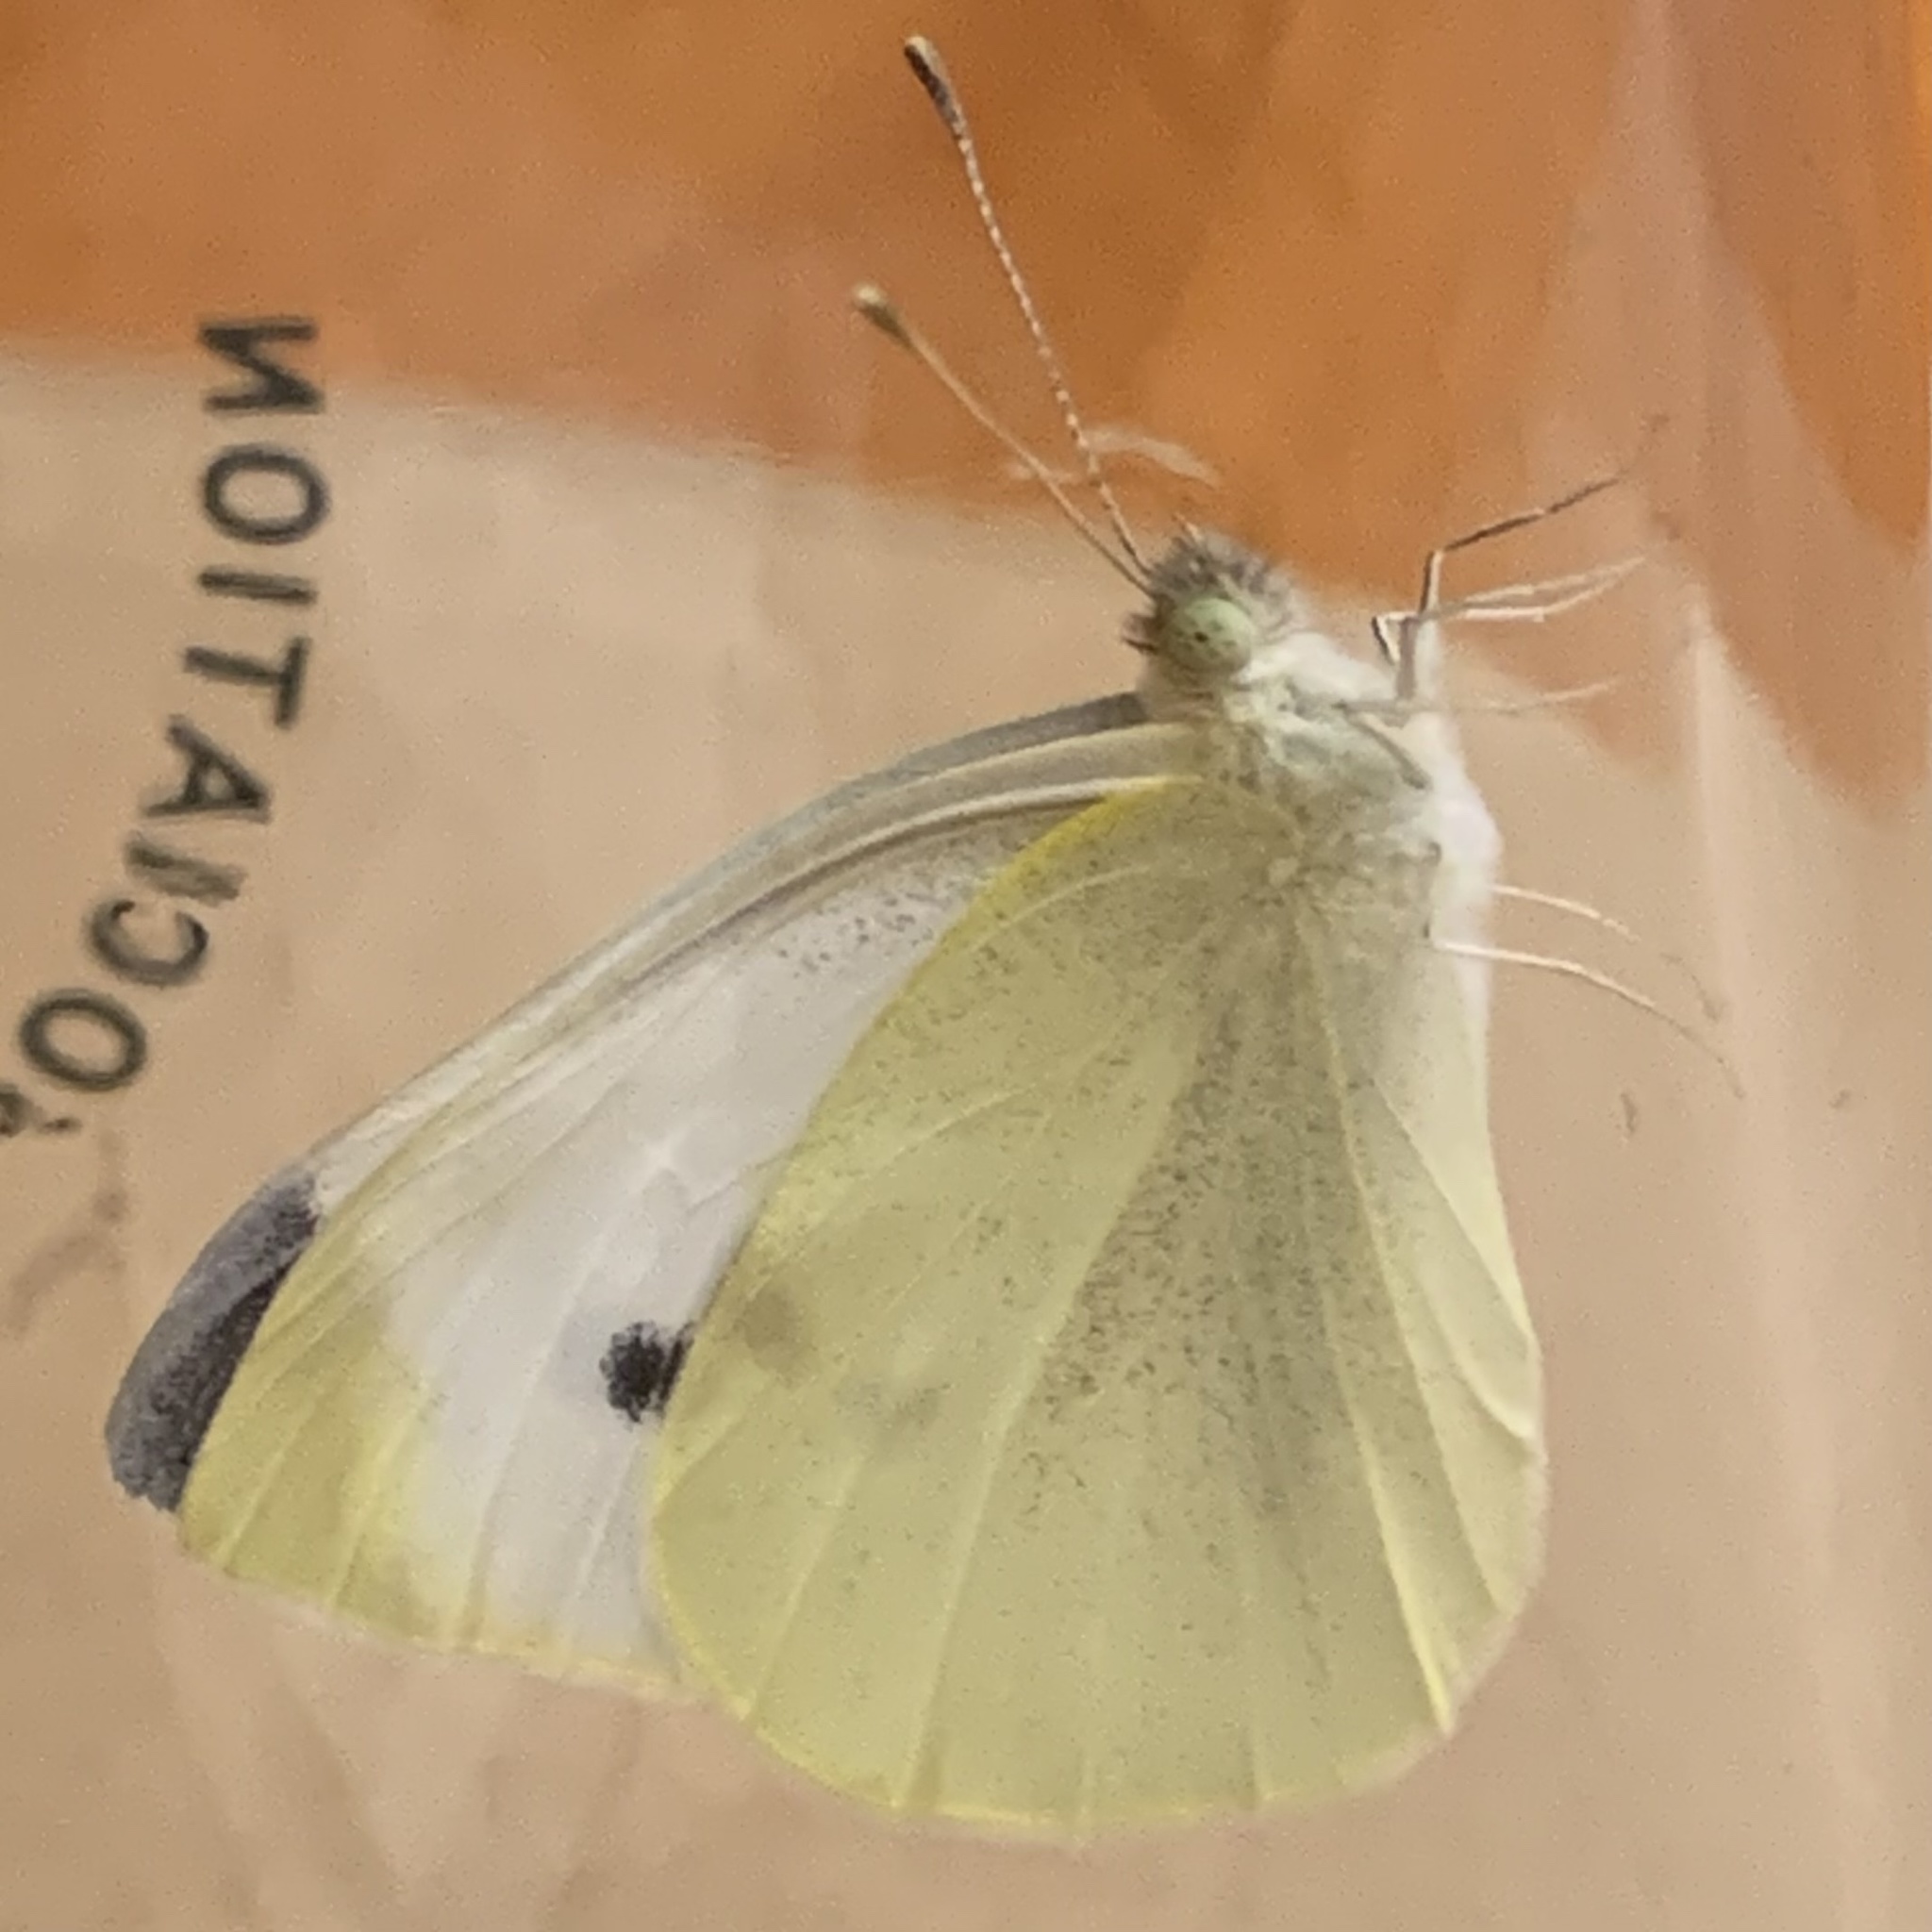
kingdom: Animalia
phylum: Arthropoda
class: Insecta
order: Lepidoptera
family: Pieridae
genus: Pieris
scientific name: Pieris rapae
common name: Small white
